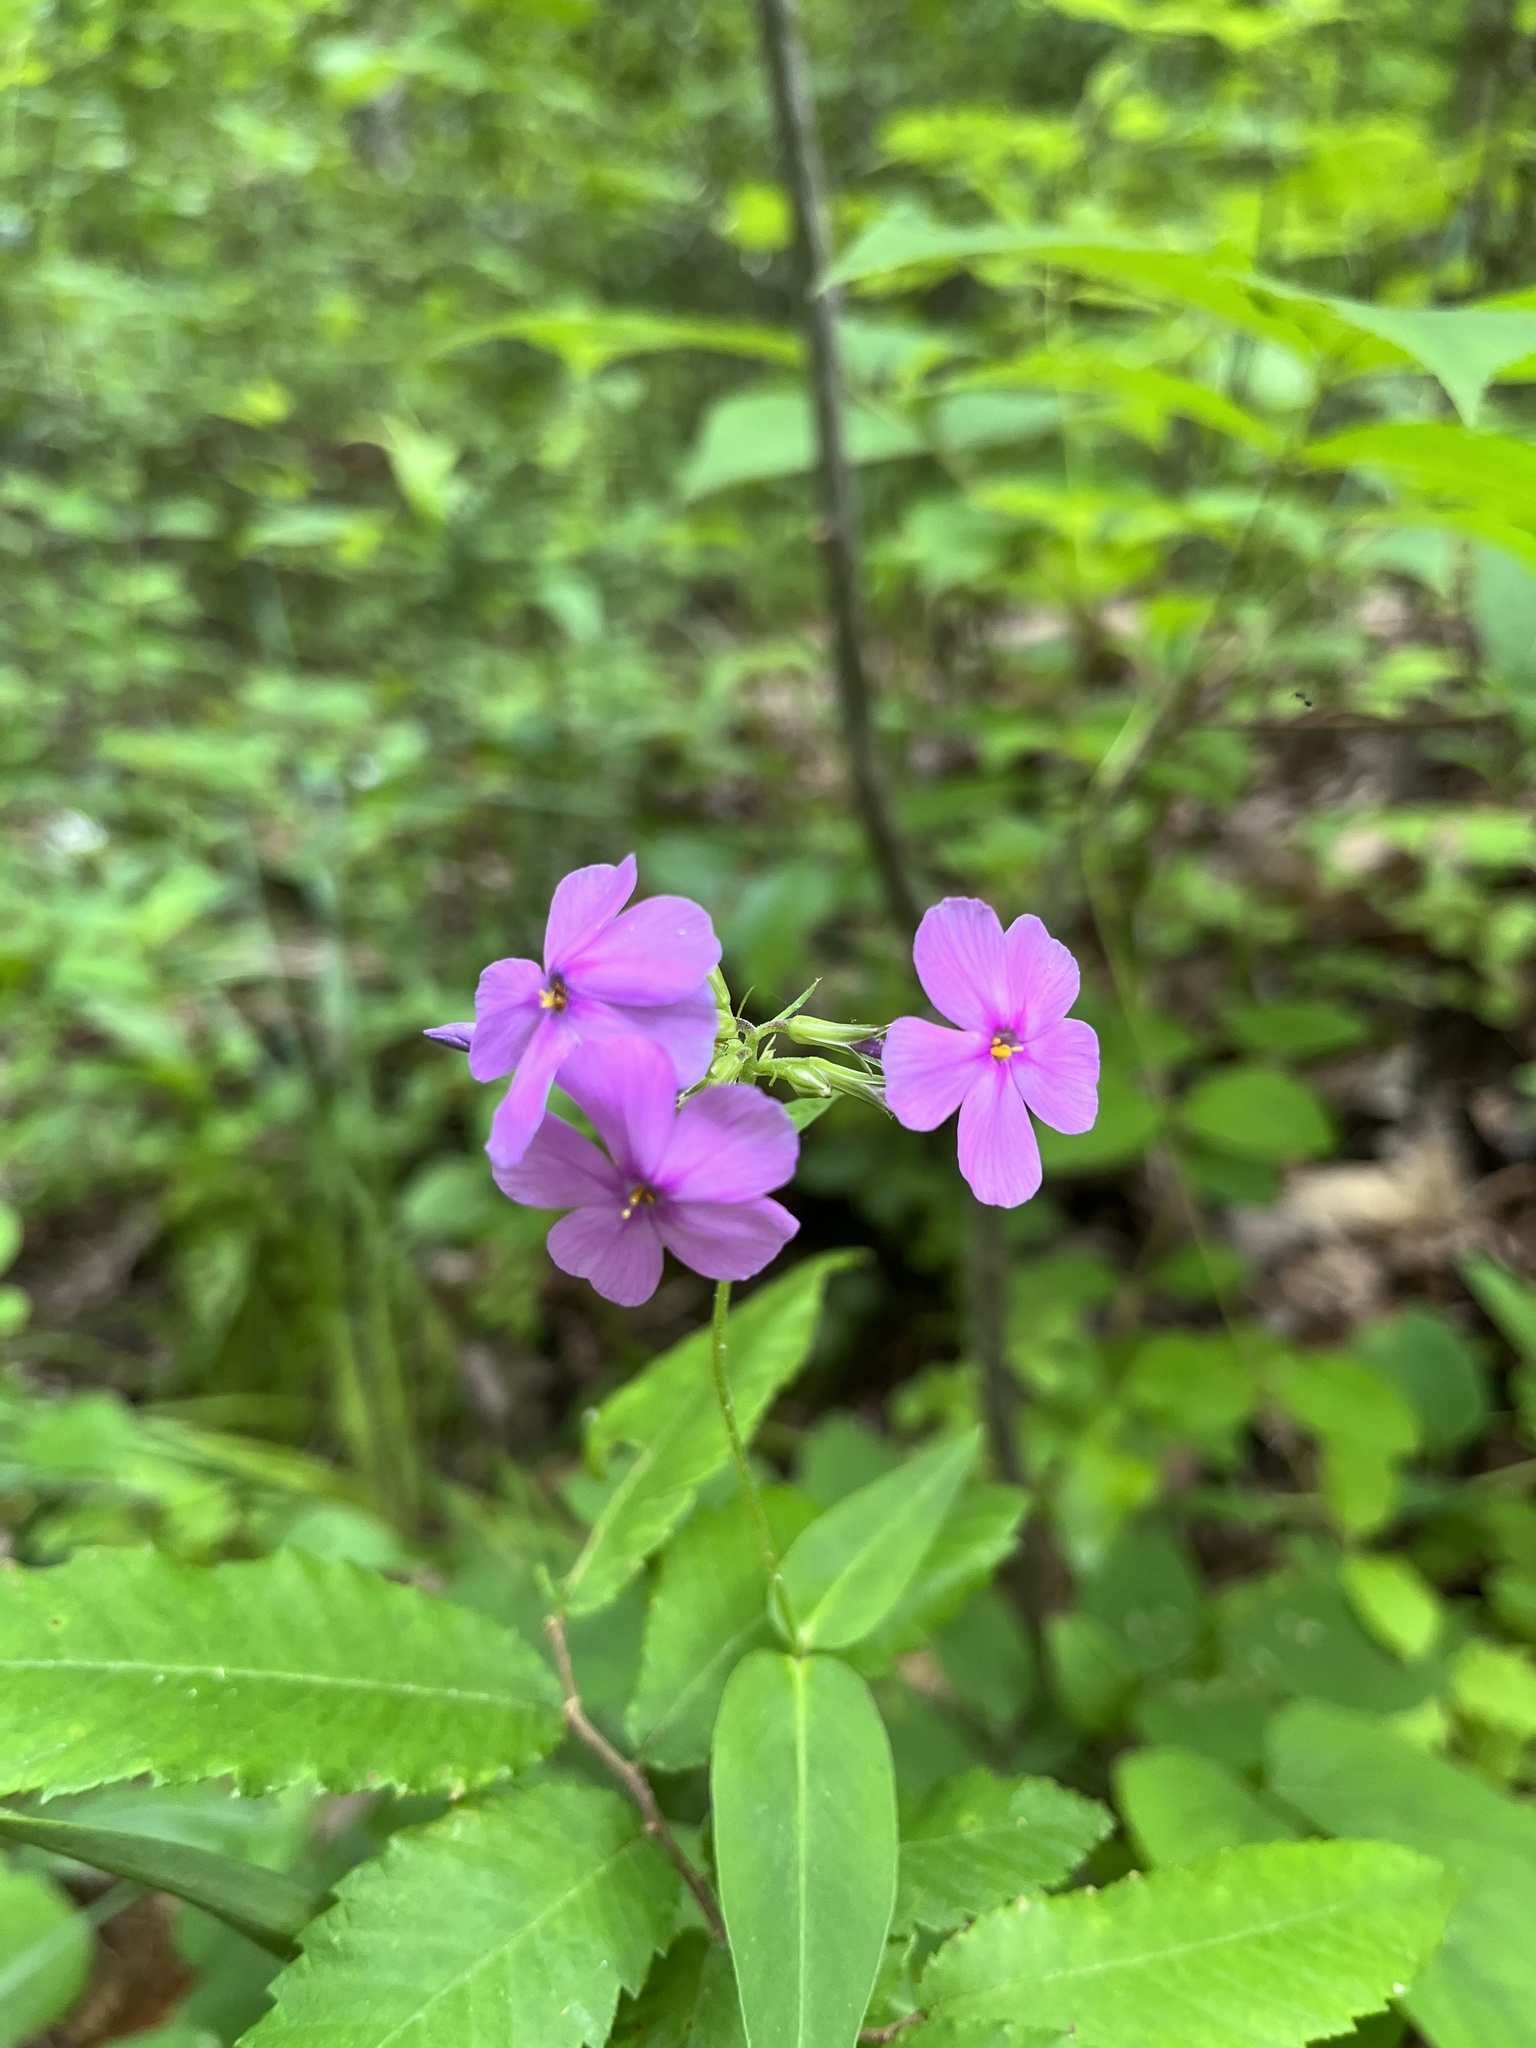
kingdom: Plantae
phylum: Tracheophyta
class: Magnoliopsida
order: Ericales
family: Polemoniaceae
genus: Phlox
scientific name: Phlox glaberrima
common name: Smooth phlox
